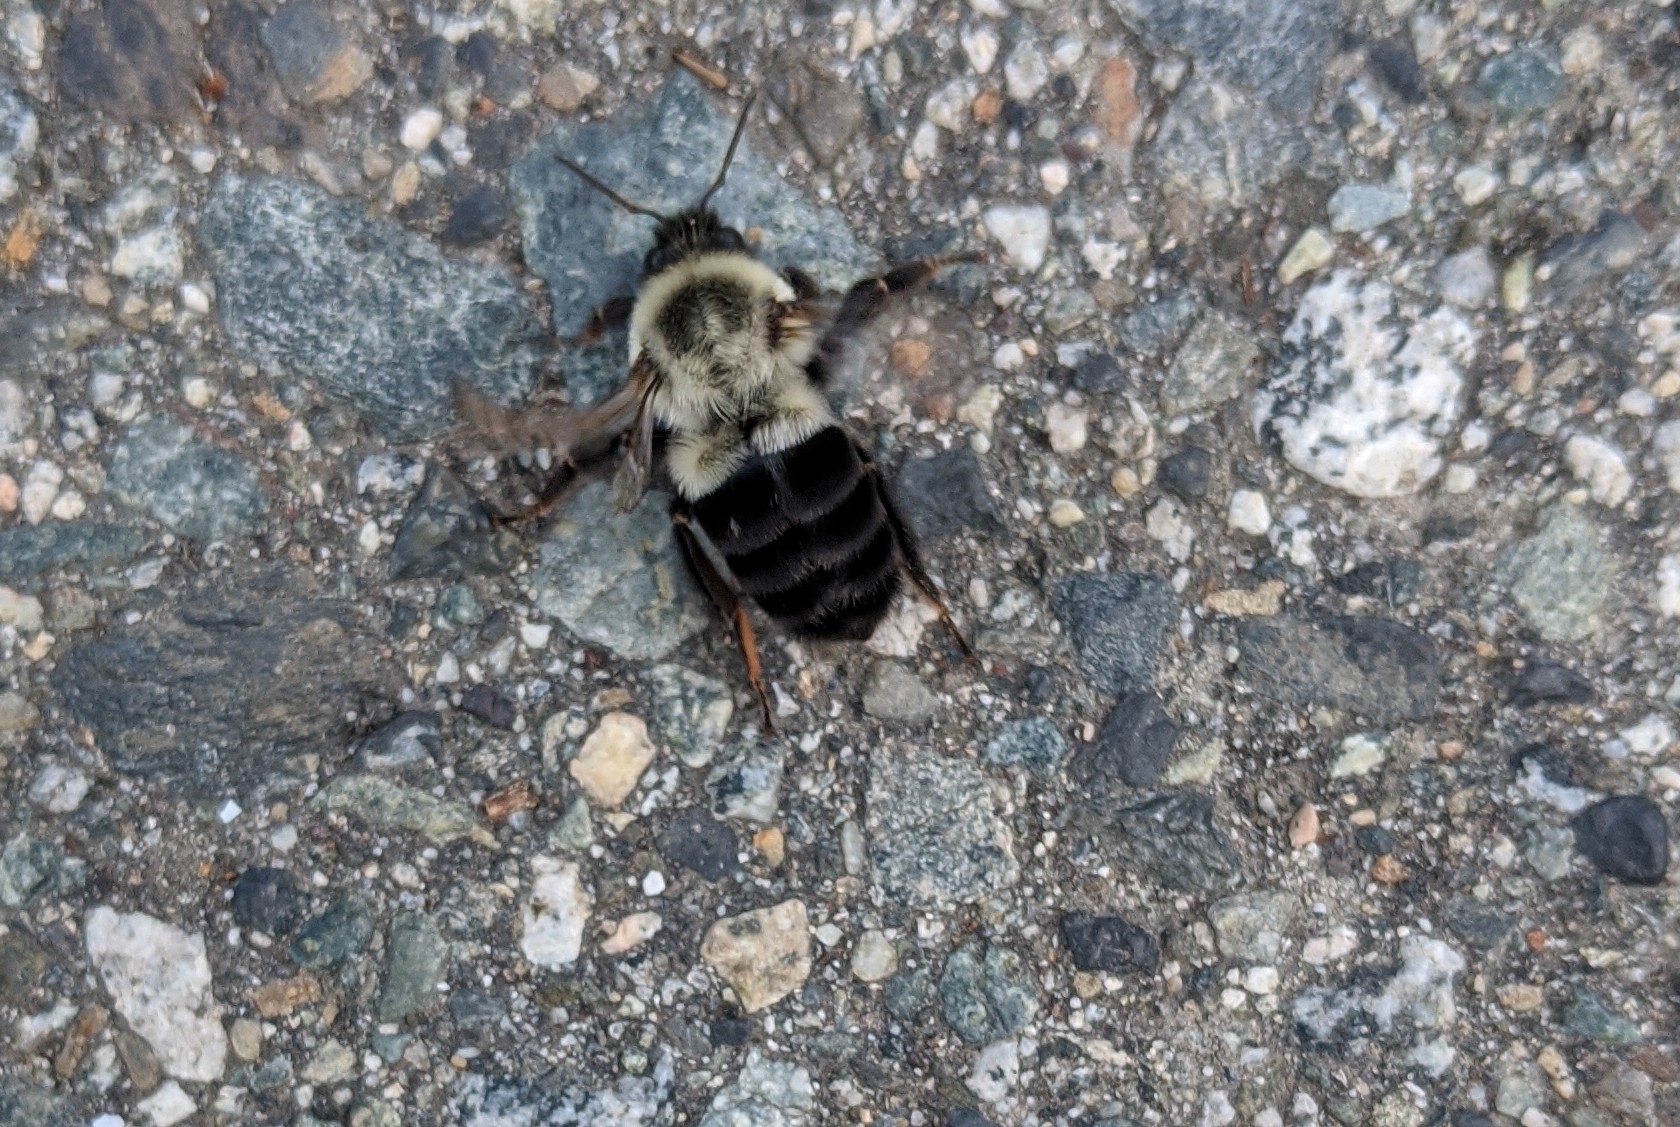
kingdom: Animalia
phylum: Arthropoda
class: Insecta
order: Hymenoptera
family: Apidae
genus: Bombus
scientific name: Bombus impatiens
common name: Common eastern bumble bee
